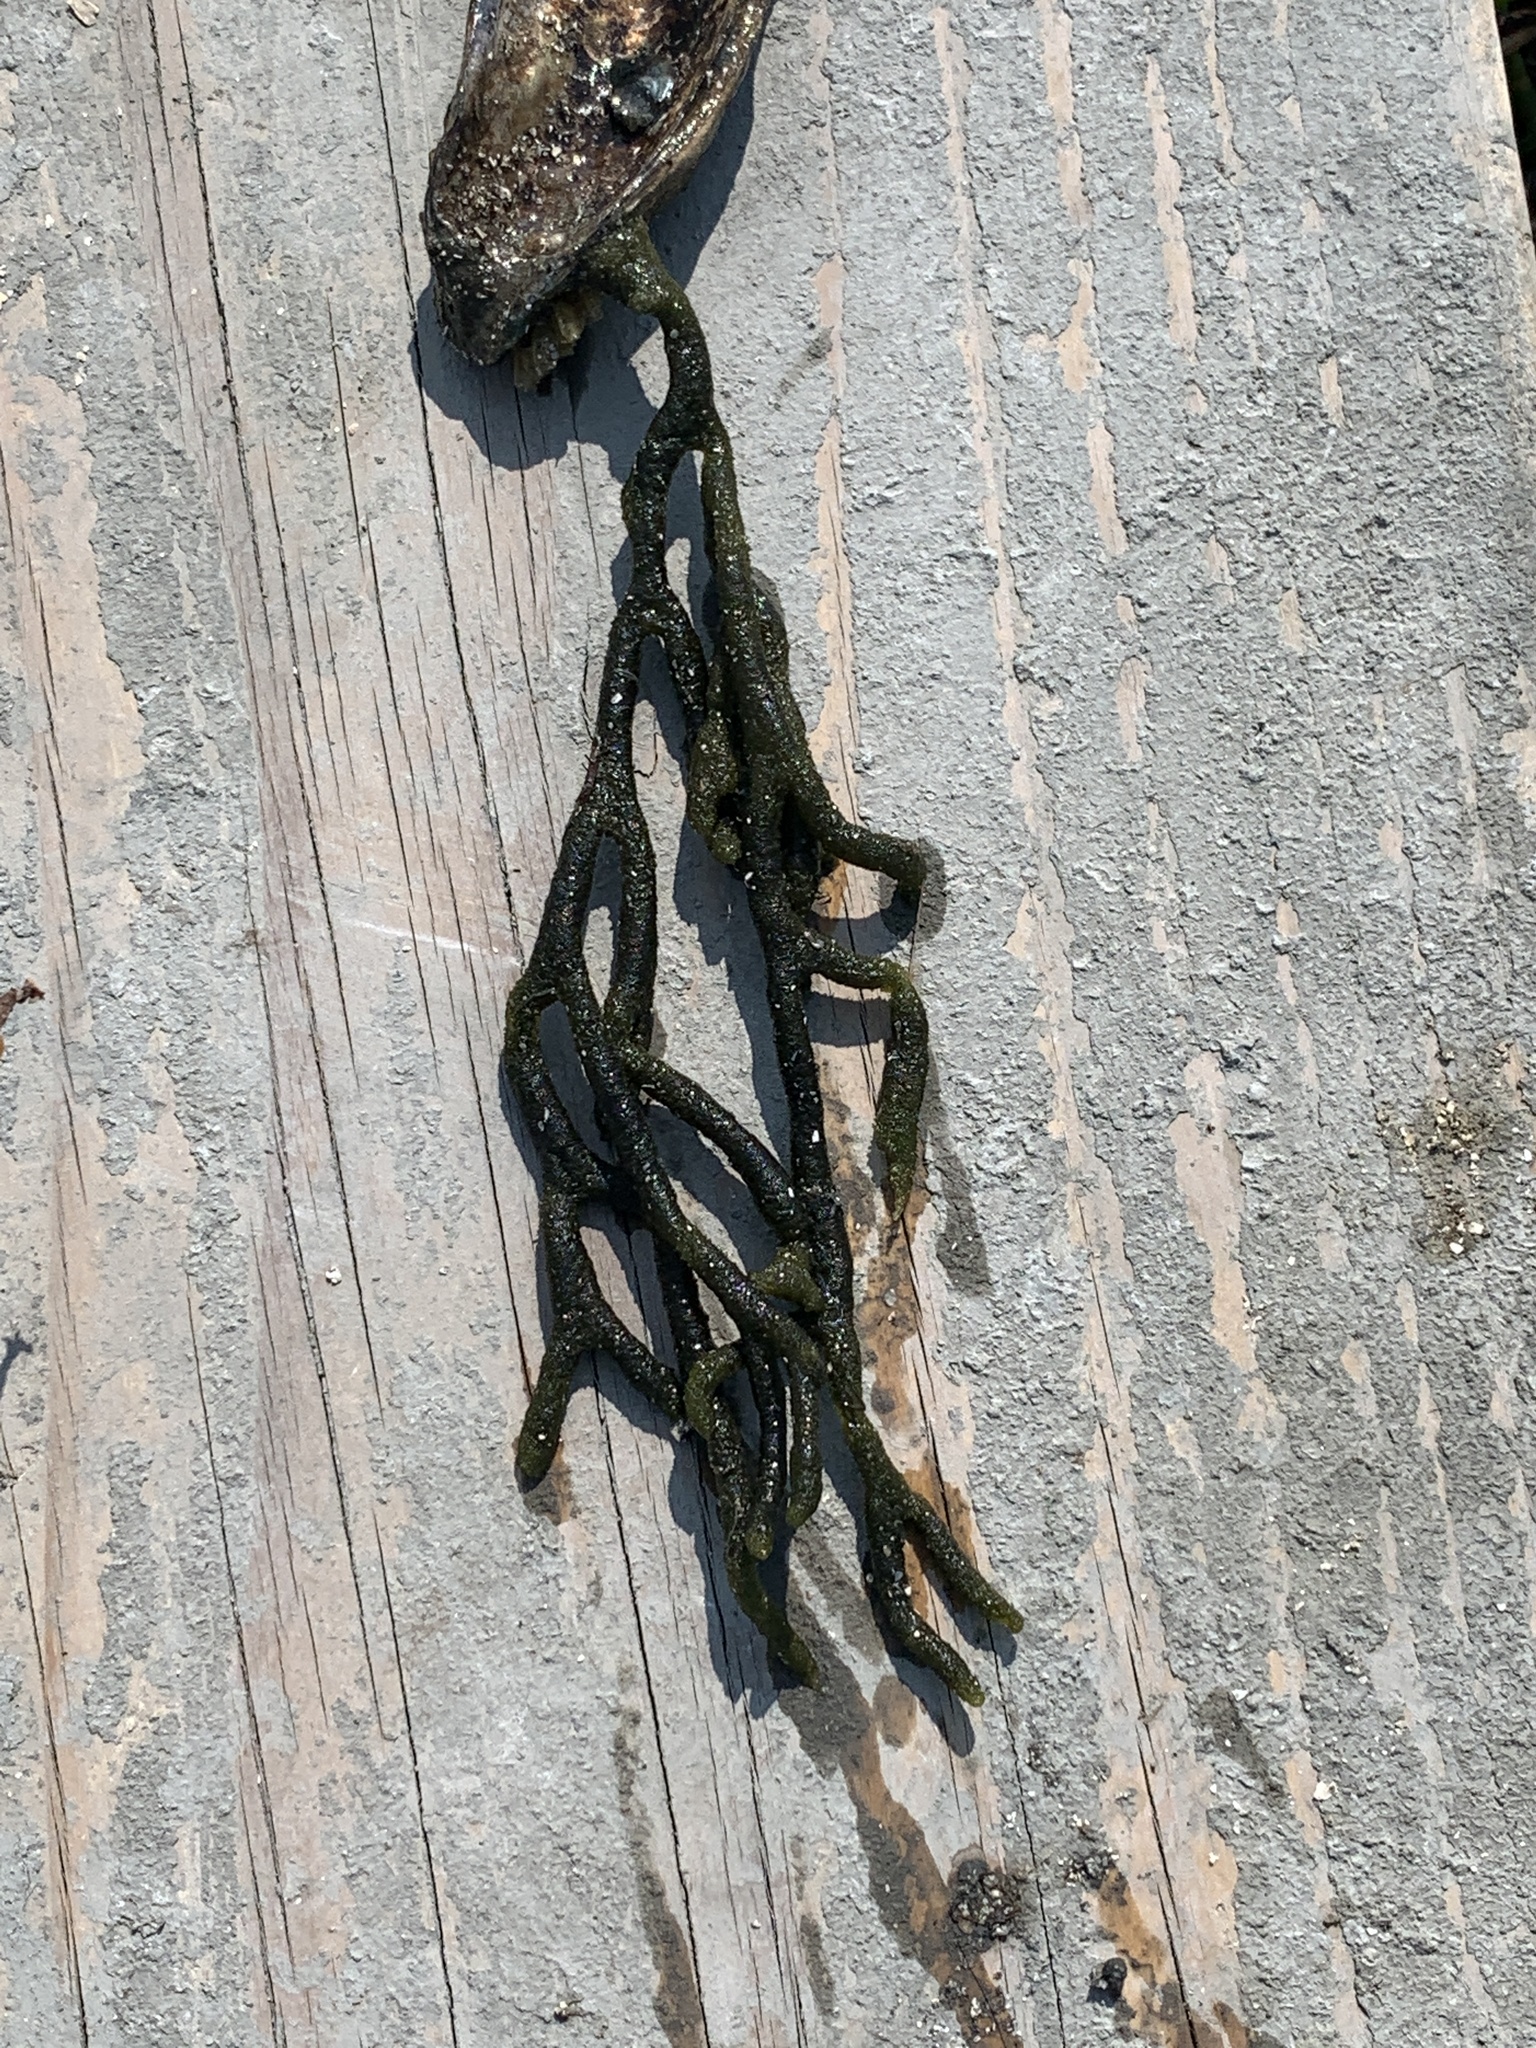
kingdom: Plantae
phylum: Chlorophyta
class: Ulvophyceae
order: Bryopsidales
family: Codiaceae
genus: Codium
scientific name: Codium fragile
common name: Dead man's fingers
